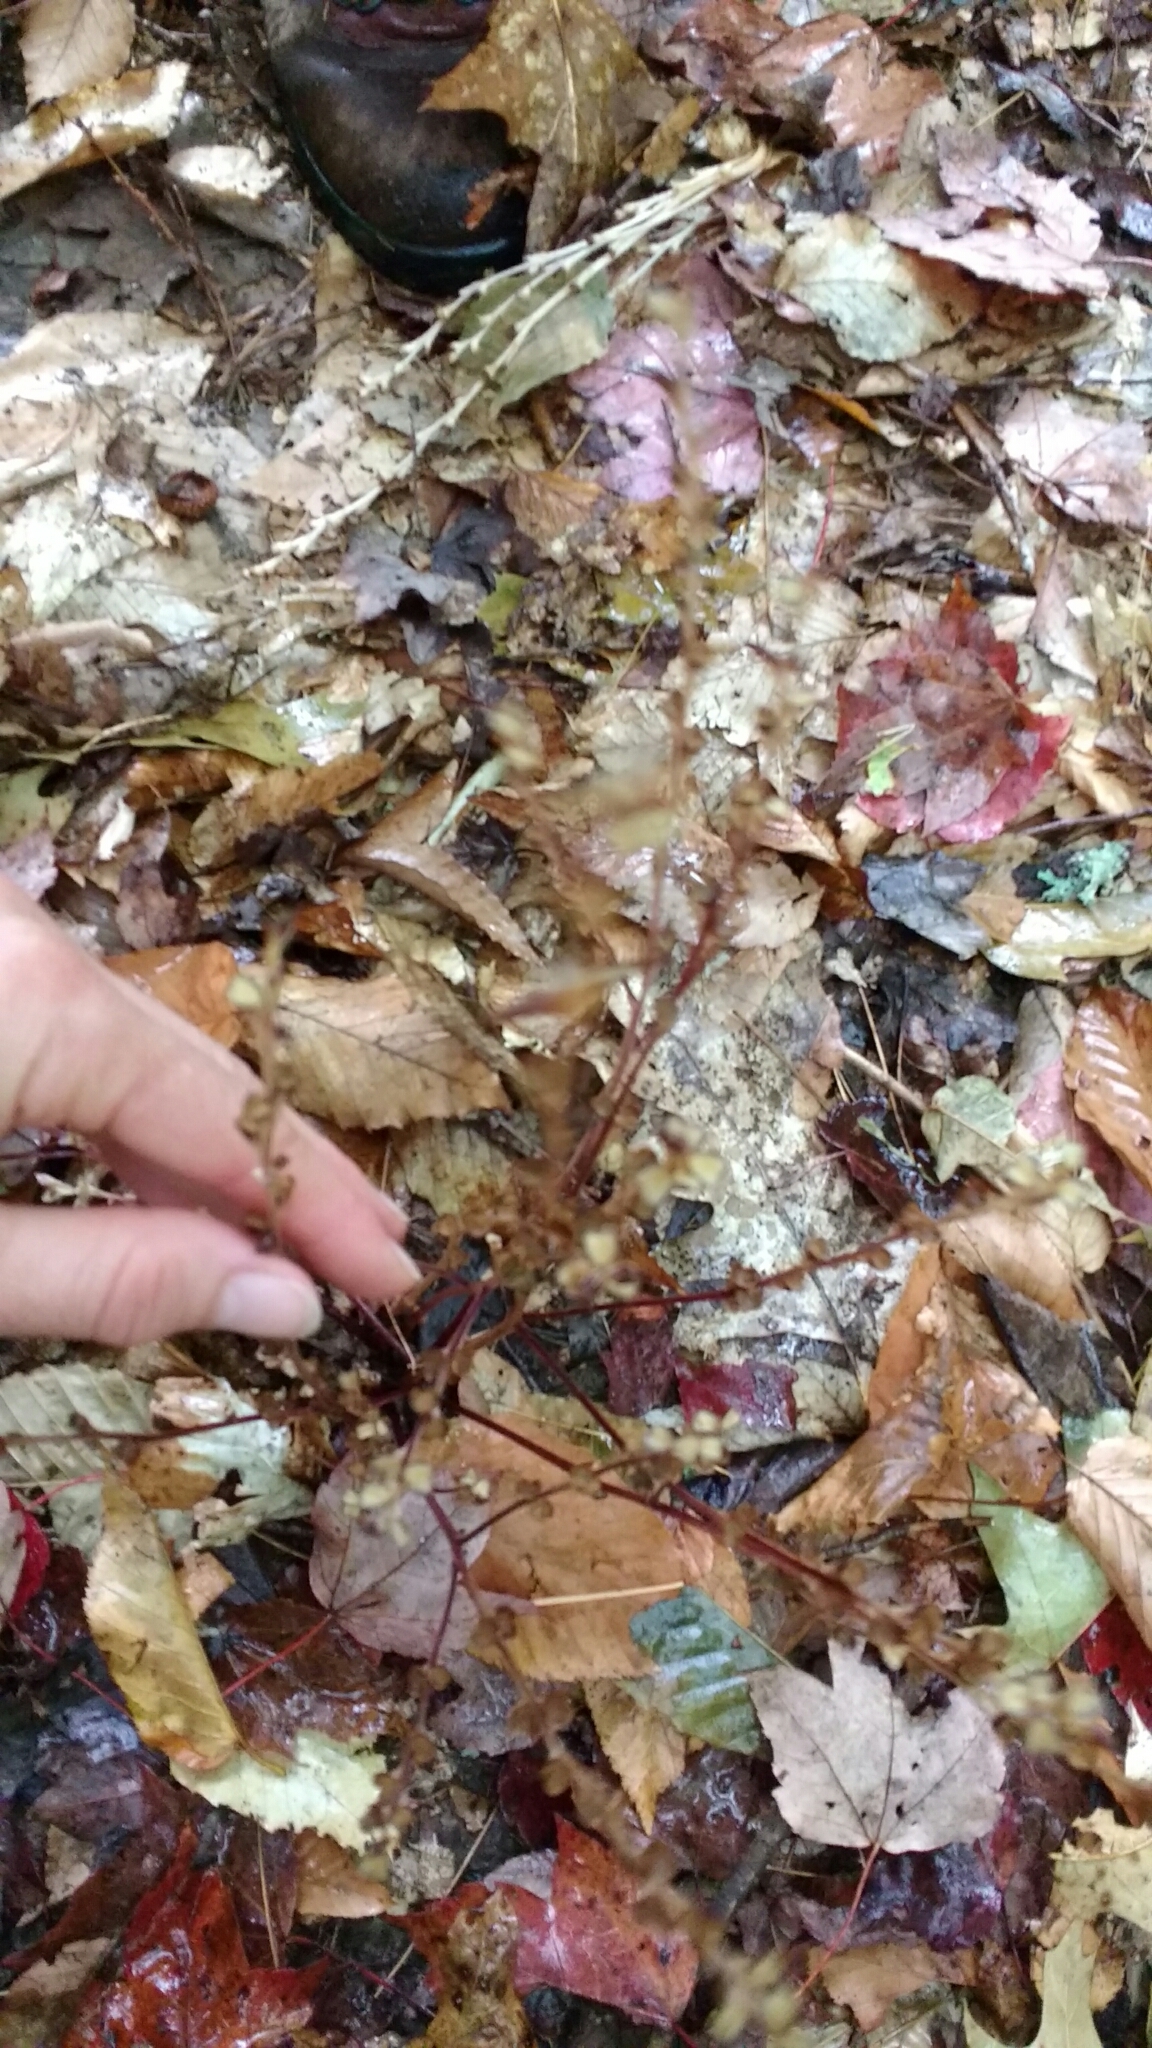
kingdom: Plantae
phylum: Tracheophyta
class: Magnoliopsida
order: Lamiales
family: Orobanchaceae
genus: Epifagus
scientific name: Epifagus virginiana
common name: Beechdrops
